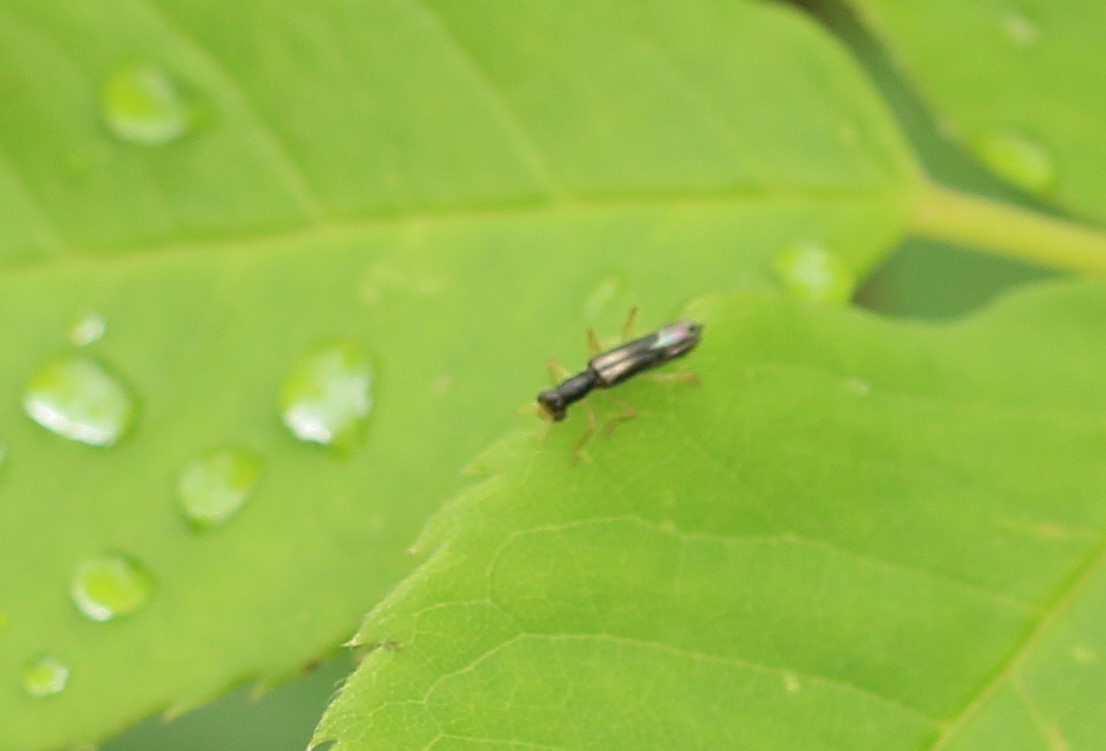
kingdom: Animalia
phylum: Arthropoda
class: Insecta
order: Coleoptera
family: Cleridae
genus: Isohydnocera
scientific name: Isohydnocera curtipennis
